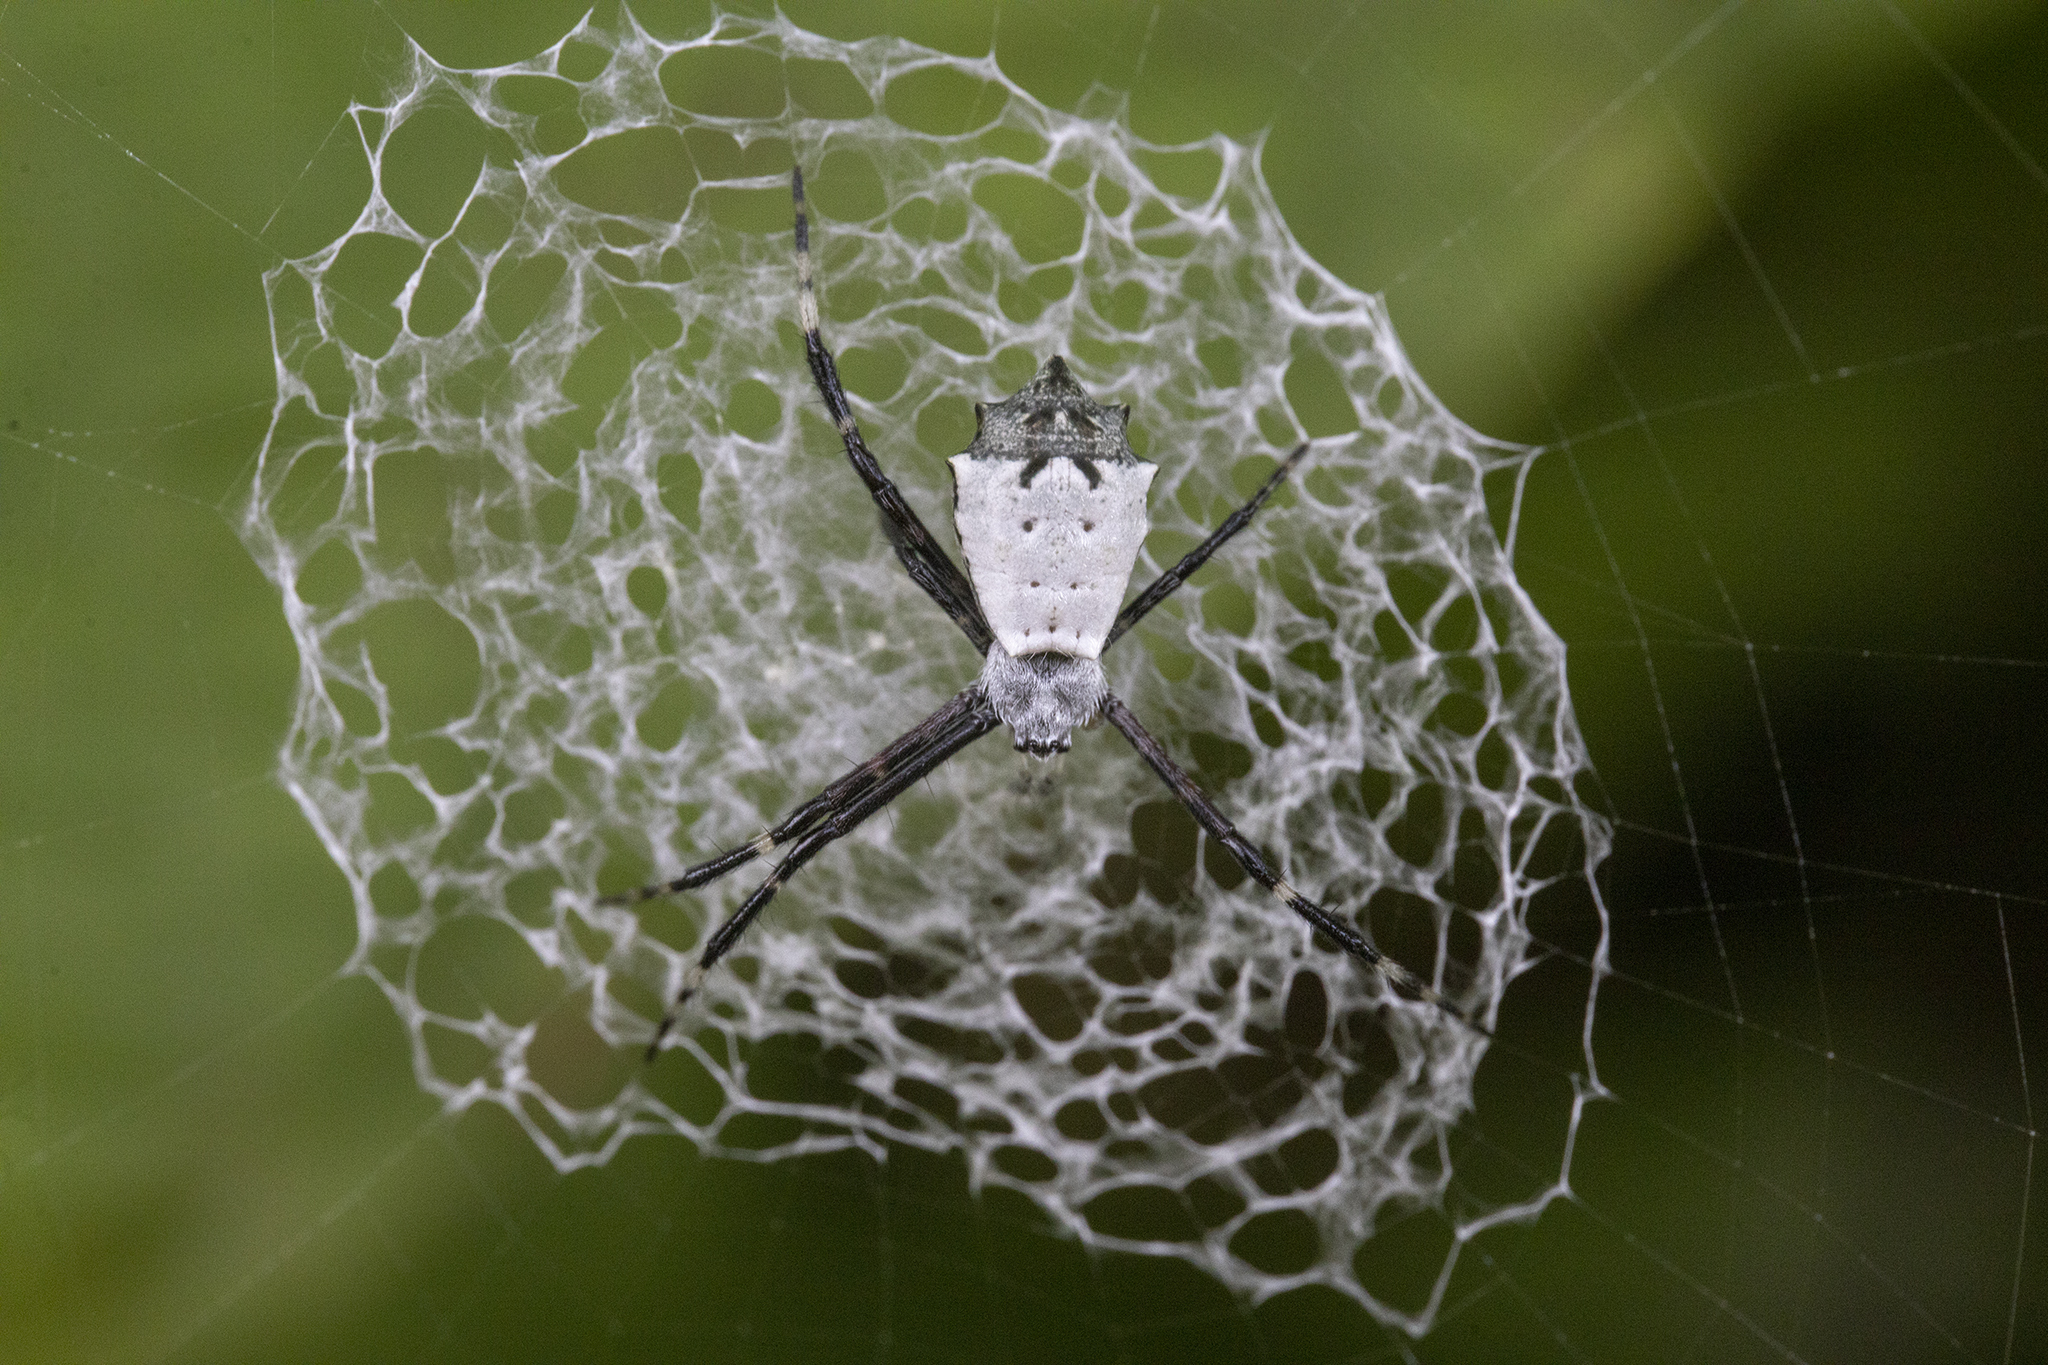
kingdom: Animalia
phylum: Arthropoda
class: Arachnida
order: Araneae
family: Araneidae
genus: Argiope
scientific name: Argiope submaronica
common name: Orb weavers
